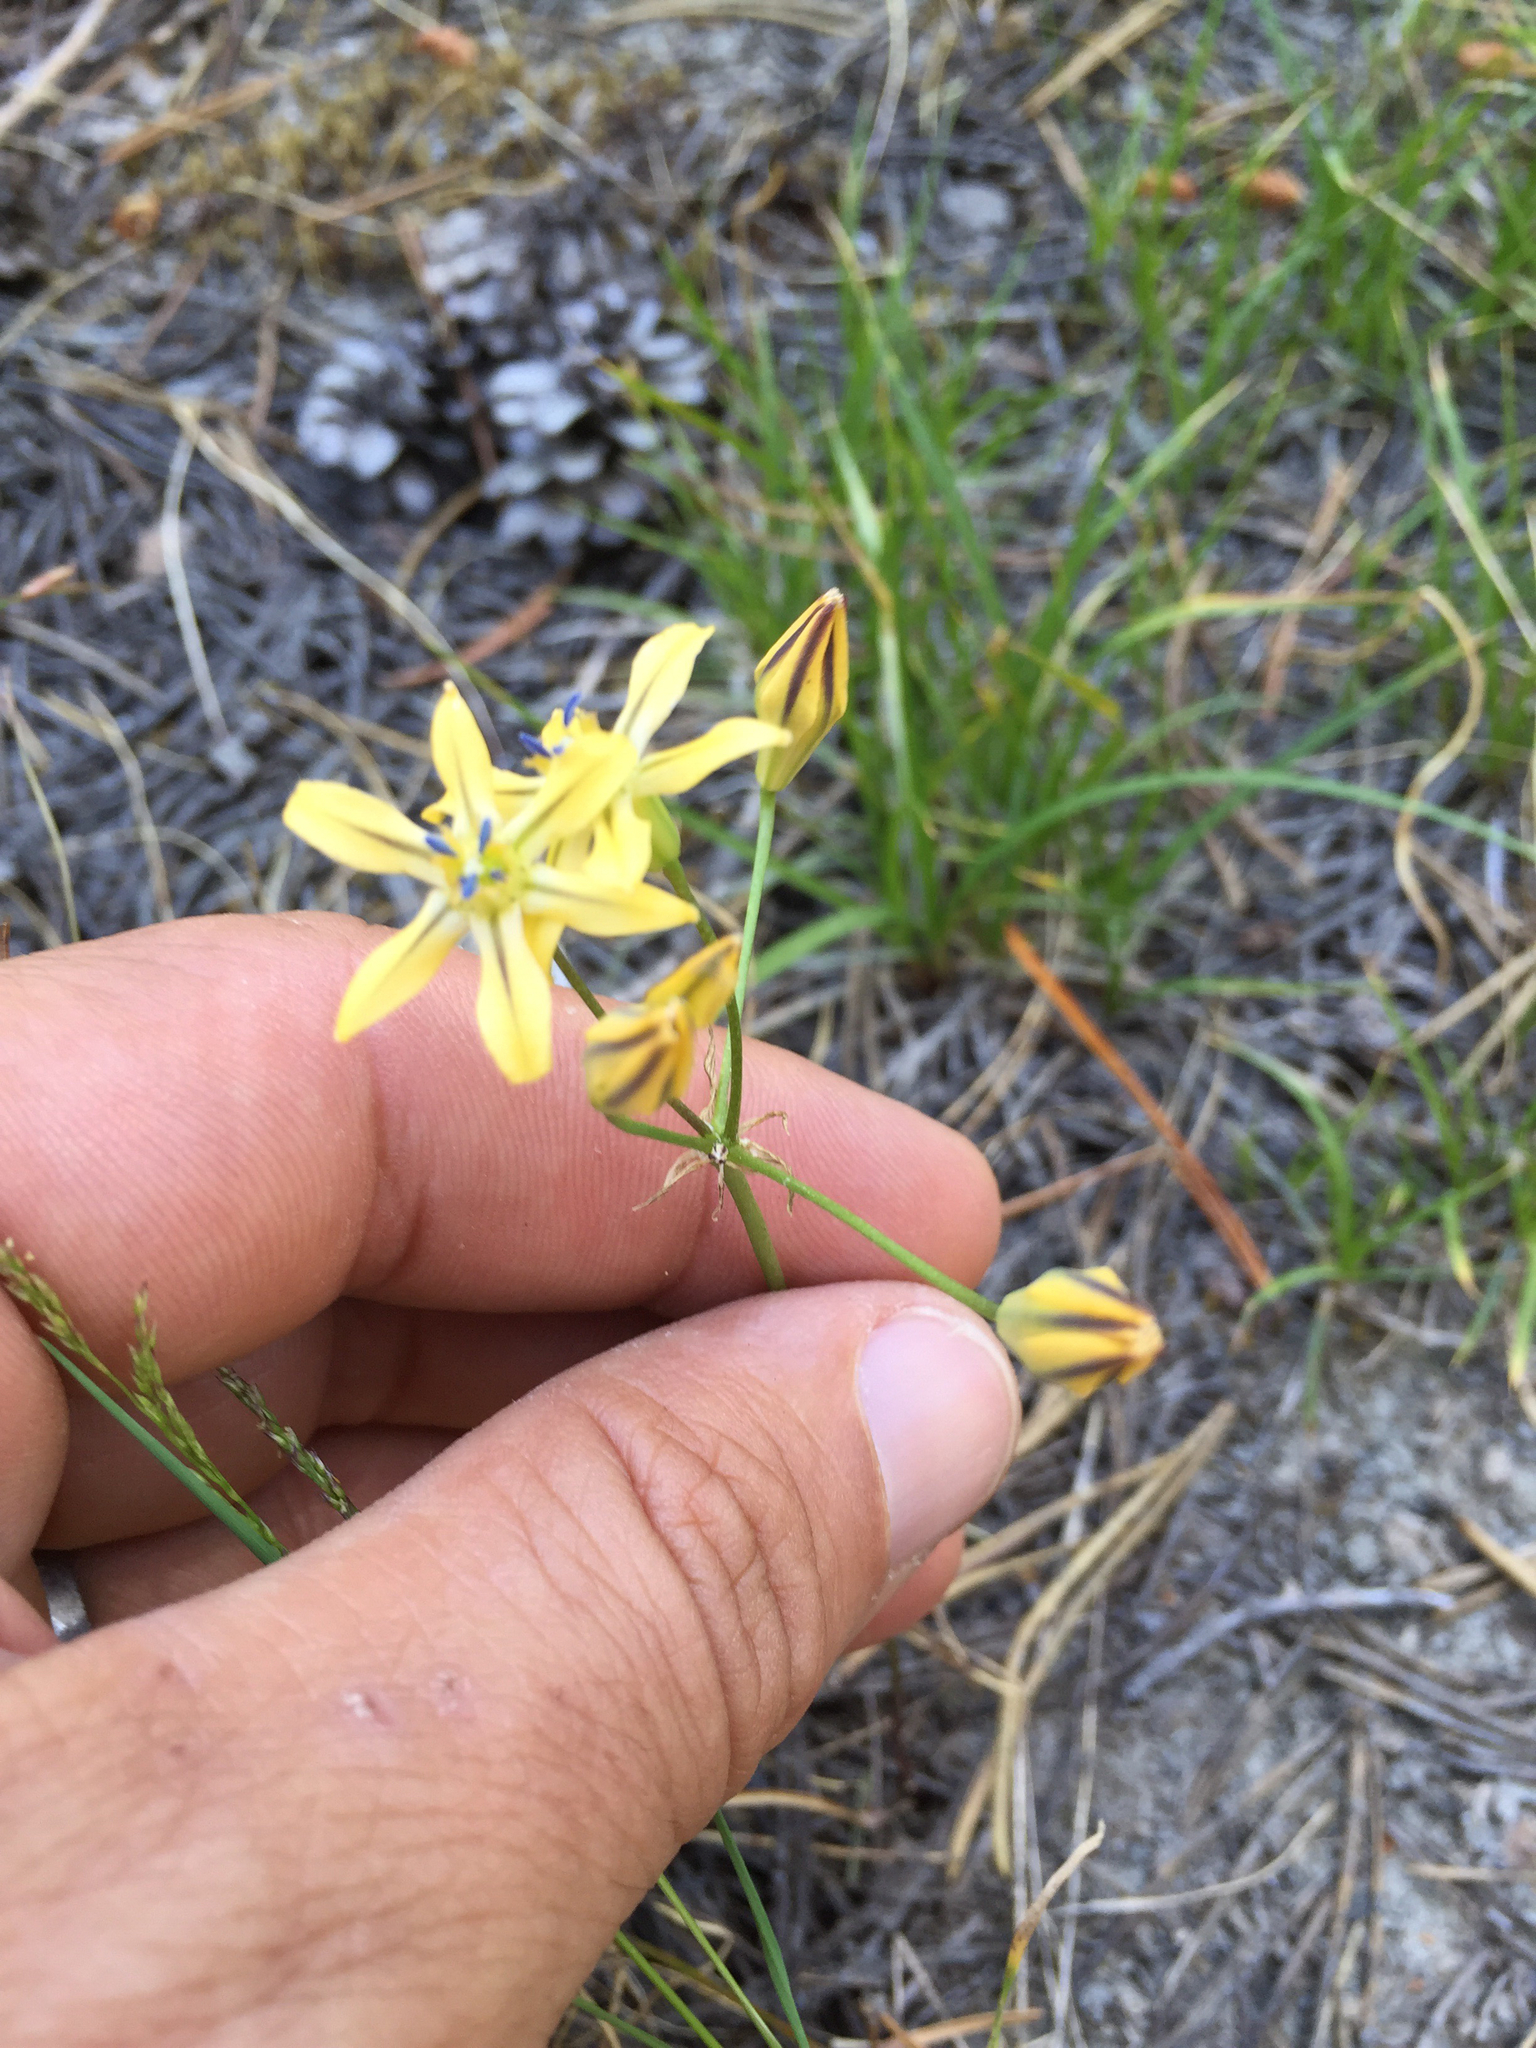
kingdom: Plantae
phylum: Tracheophyta
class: Liliopsida
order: Asparagales
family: Asparagaceae
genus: Triteleia
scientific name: Triteleia ixioides
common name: Yellow-brodiaea
